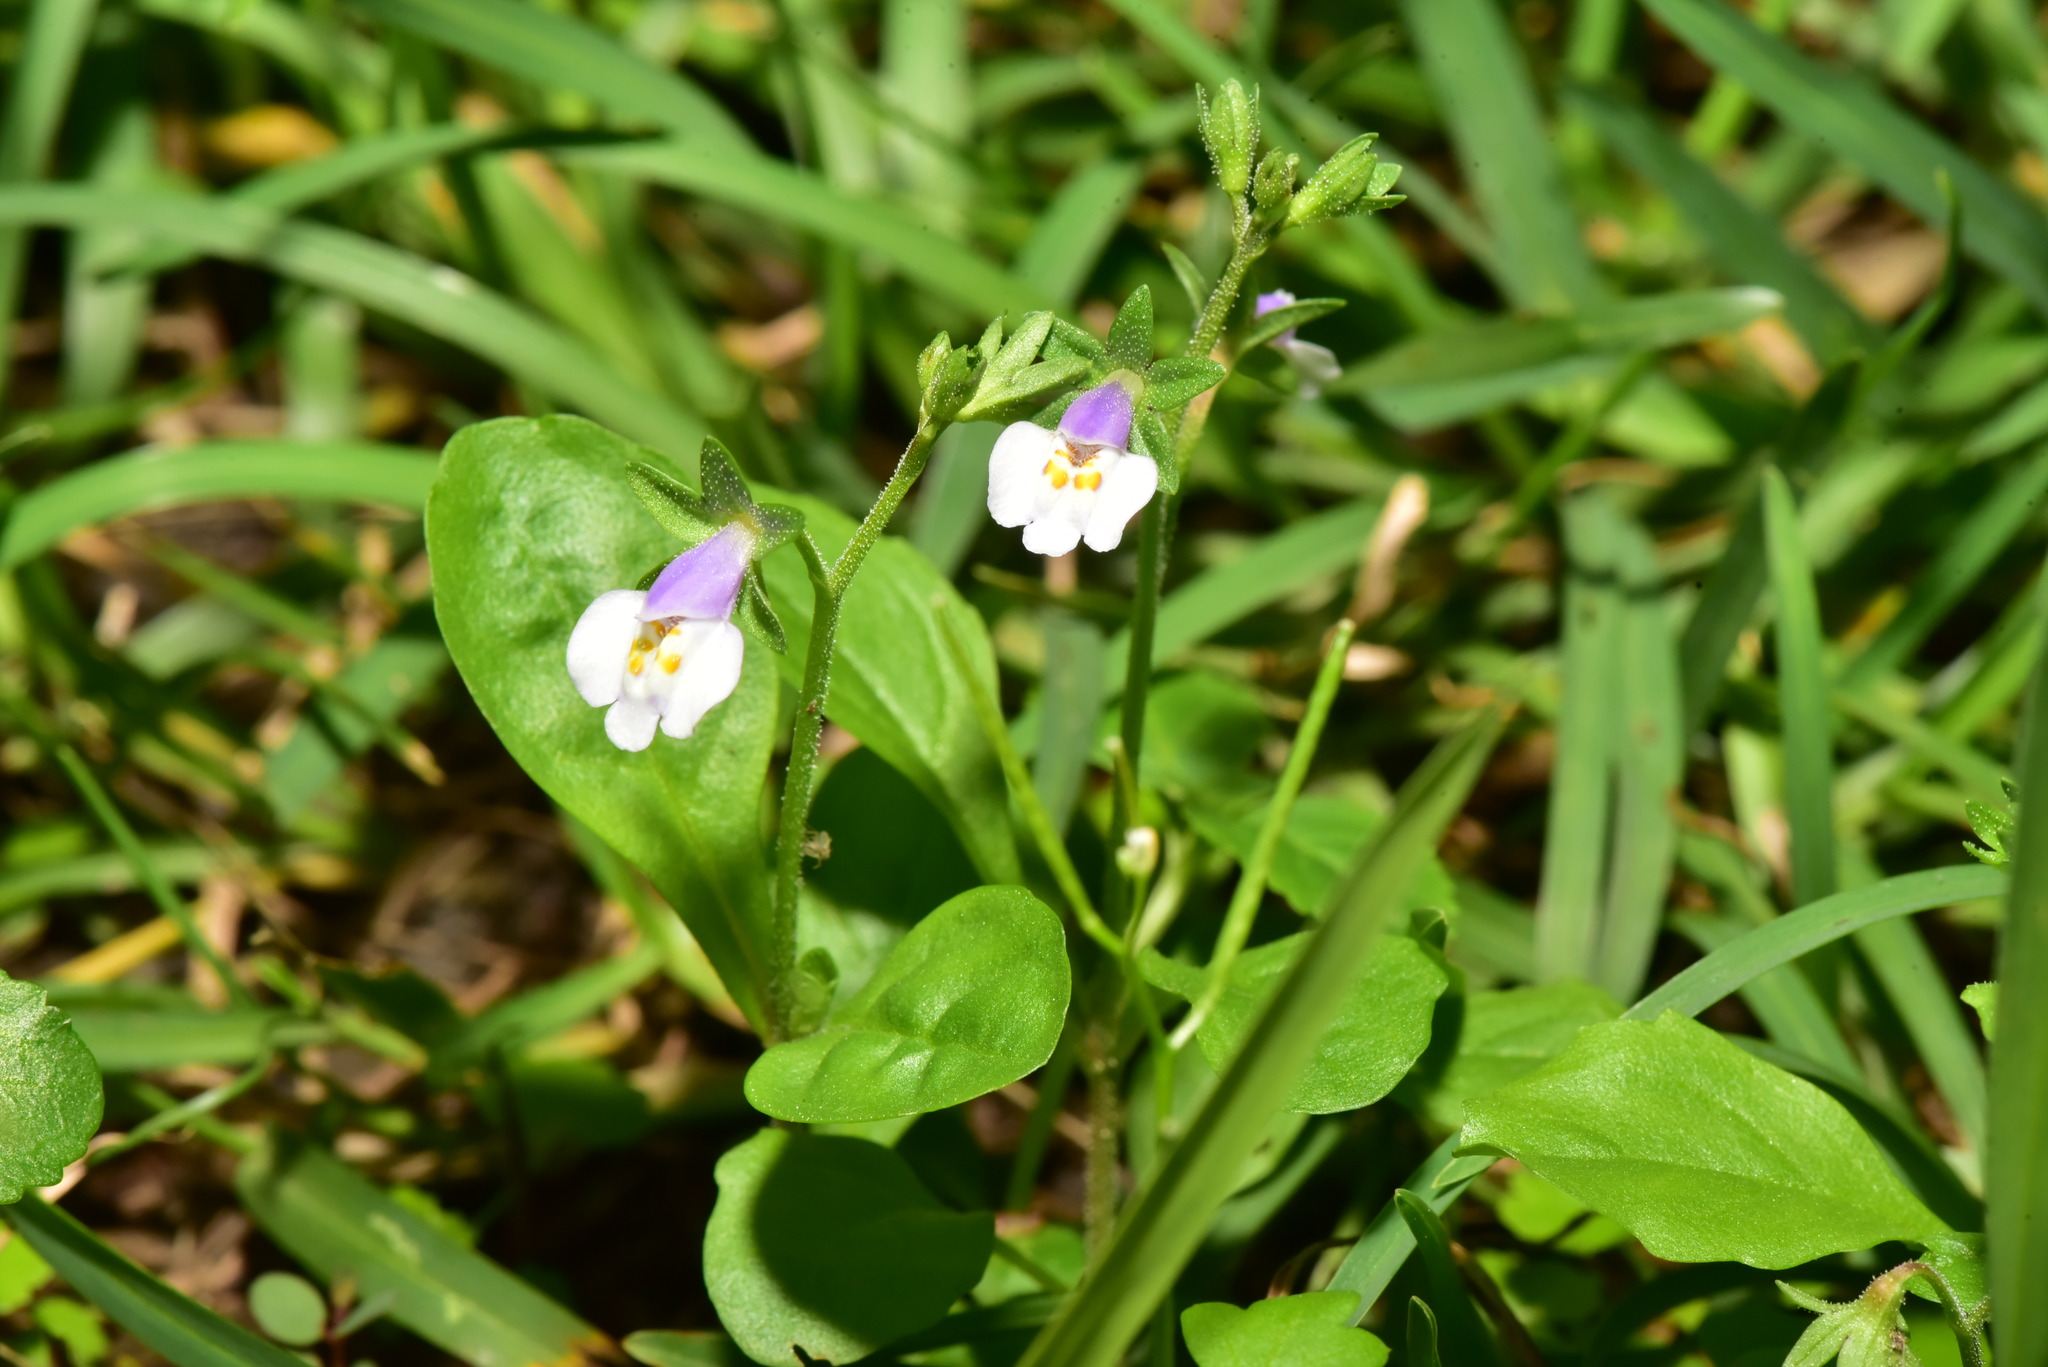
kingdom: Plantae
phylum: Tracheophyta
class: Magnoliopsida
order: Lamiales
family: Mazaceae
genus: Mazus
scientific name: Mazus pumilus
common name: Japanese mazus
